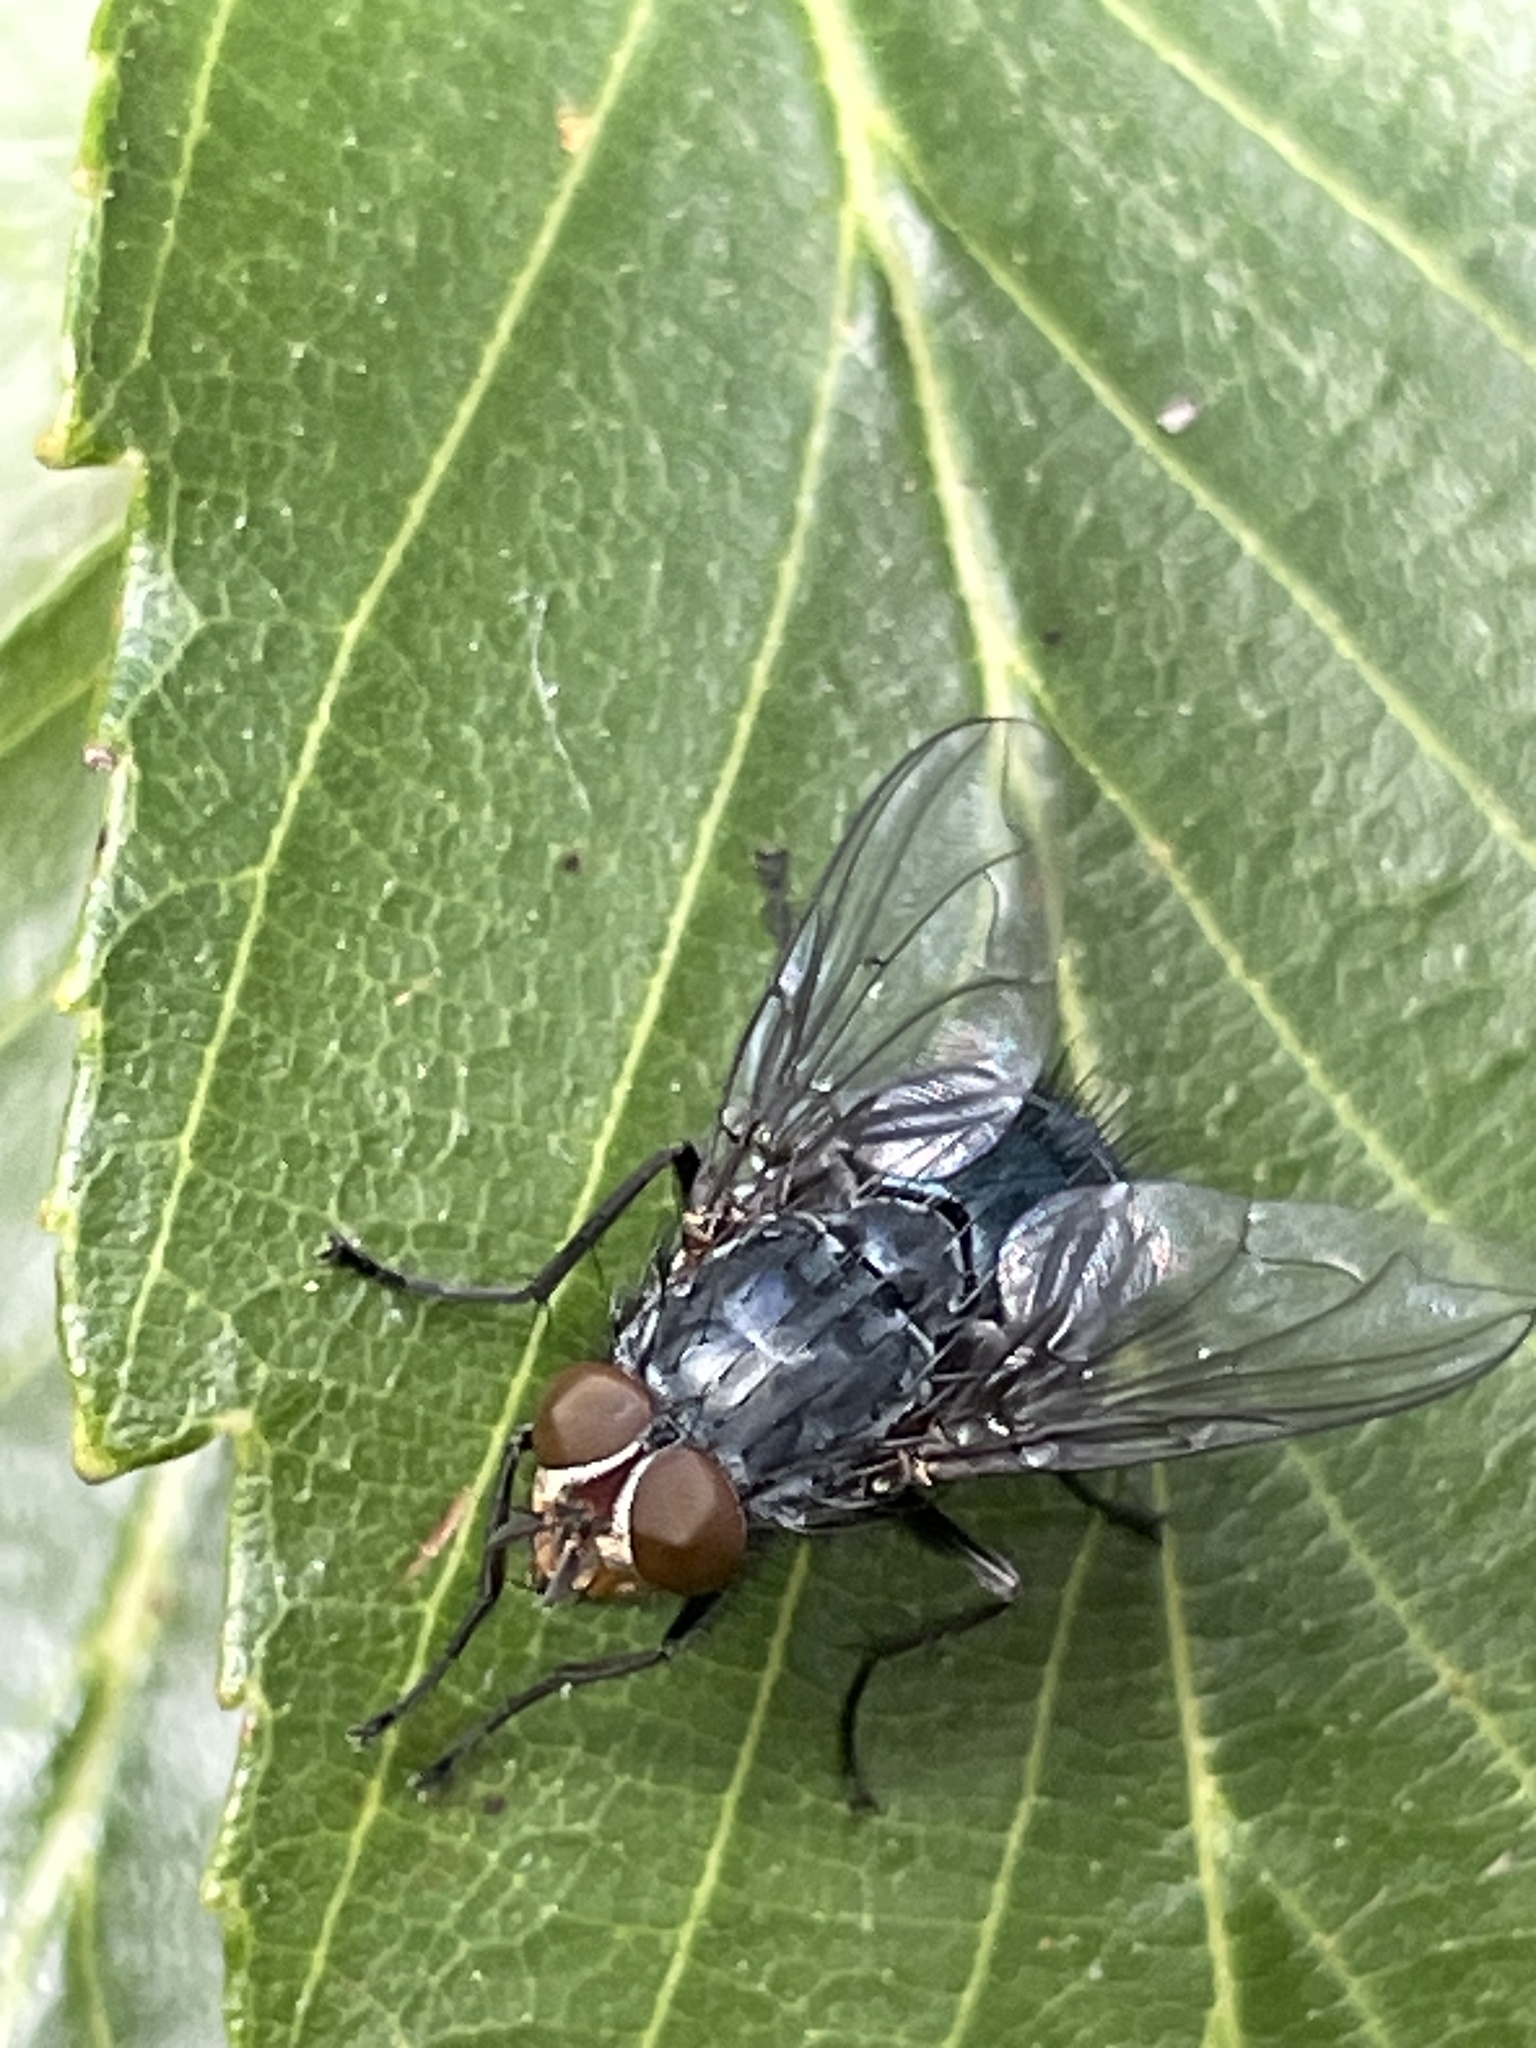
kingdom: Animalia
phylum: Arthropoda
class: Insecta
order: Diptera
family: Calliphoridae
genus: Calliphora
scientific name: Calliphora vicina
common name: Common blow flie
